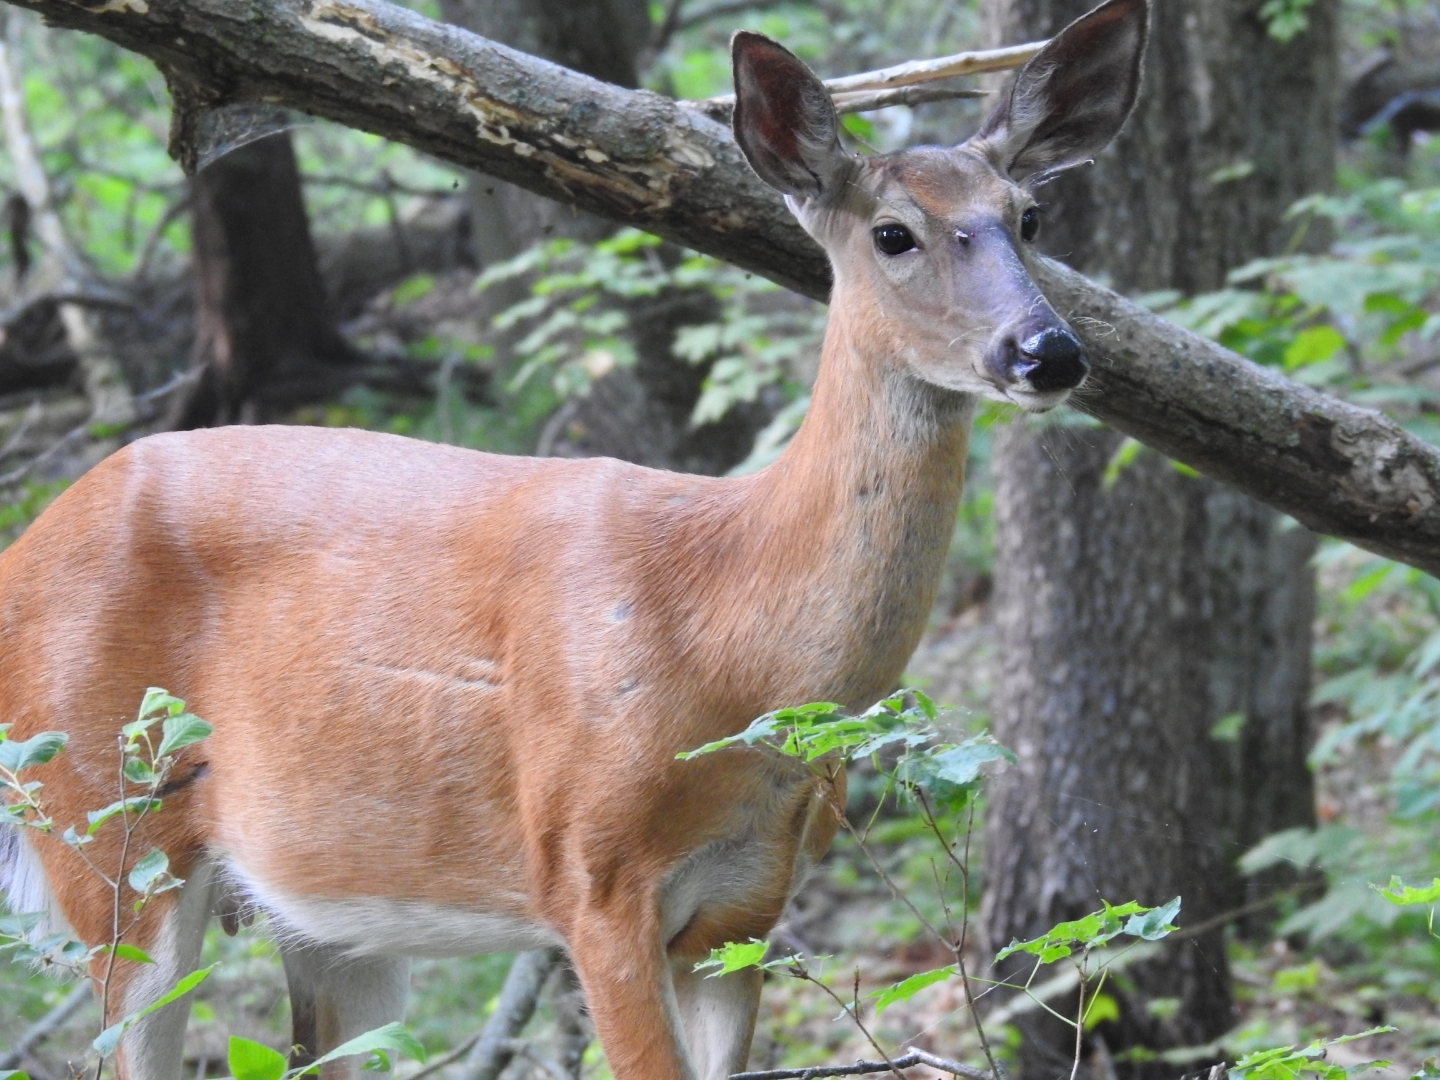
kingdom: Animalia
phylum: Chordata
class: Mammalia
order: Artiodactyla
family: Cervidae
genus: Odocoileus
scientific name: Odocoileus virginianus
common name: White-tailed deer
